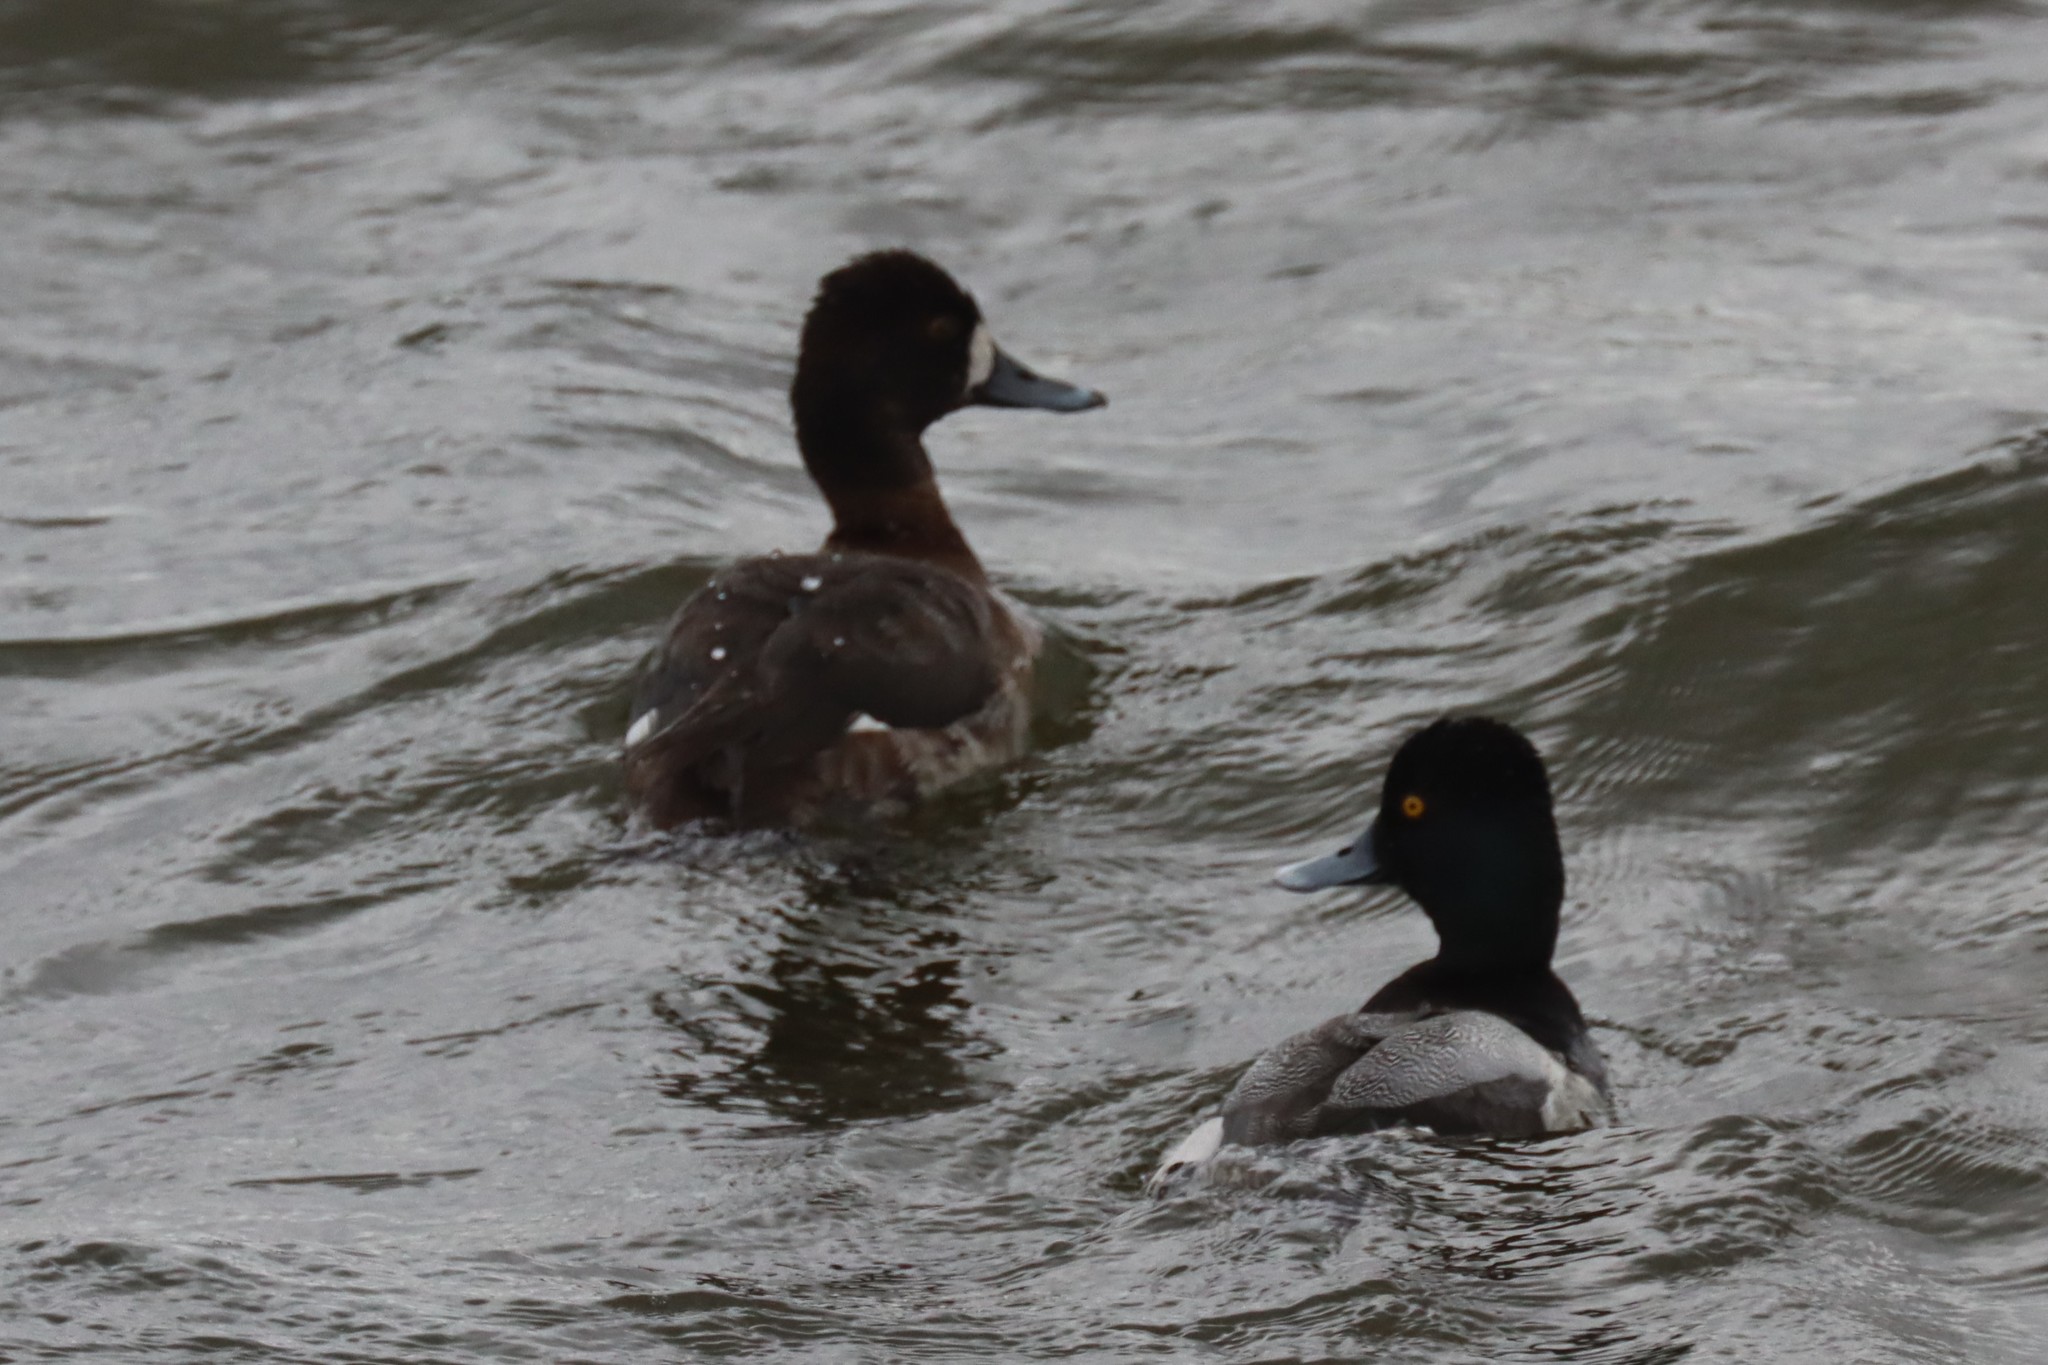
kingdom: Animalia
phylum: Chordata
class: Aves
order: Anseriformes
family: Anatidae
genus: Aythya
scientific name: Aythya affinis
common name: Lesser scaup
